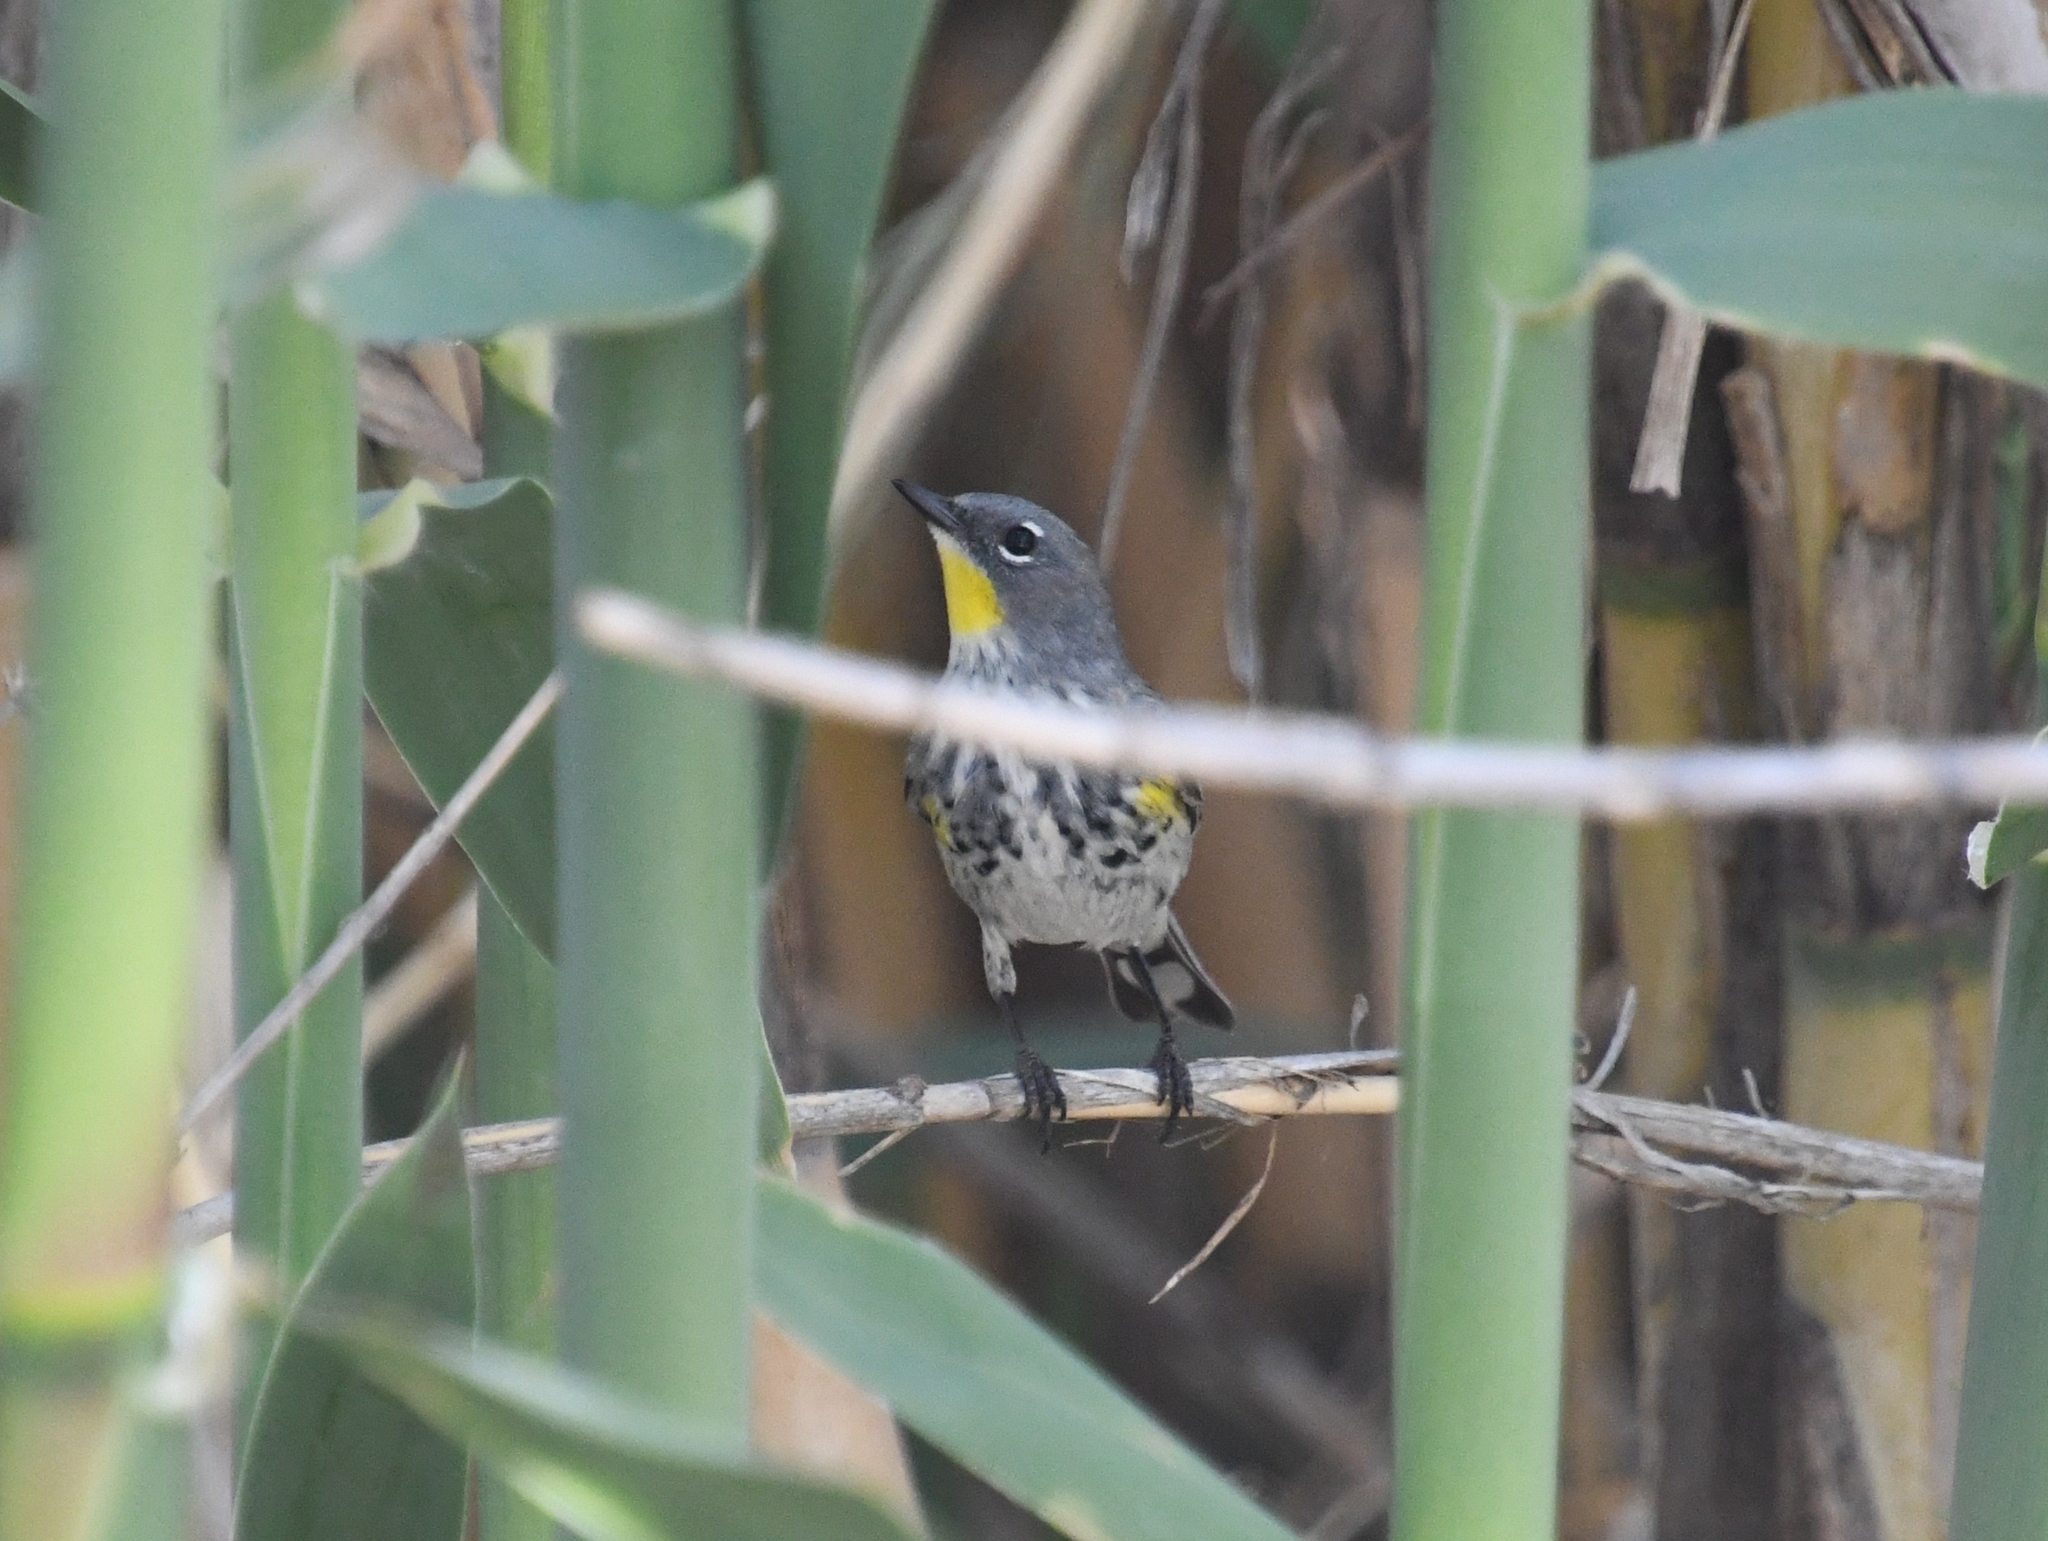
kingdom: Animalia
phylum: Chordata
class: Aves
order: Passeriformes
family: Parulidae
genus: Setophaga
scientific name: Setophaga coronata
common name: Myrtle warbler
